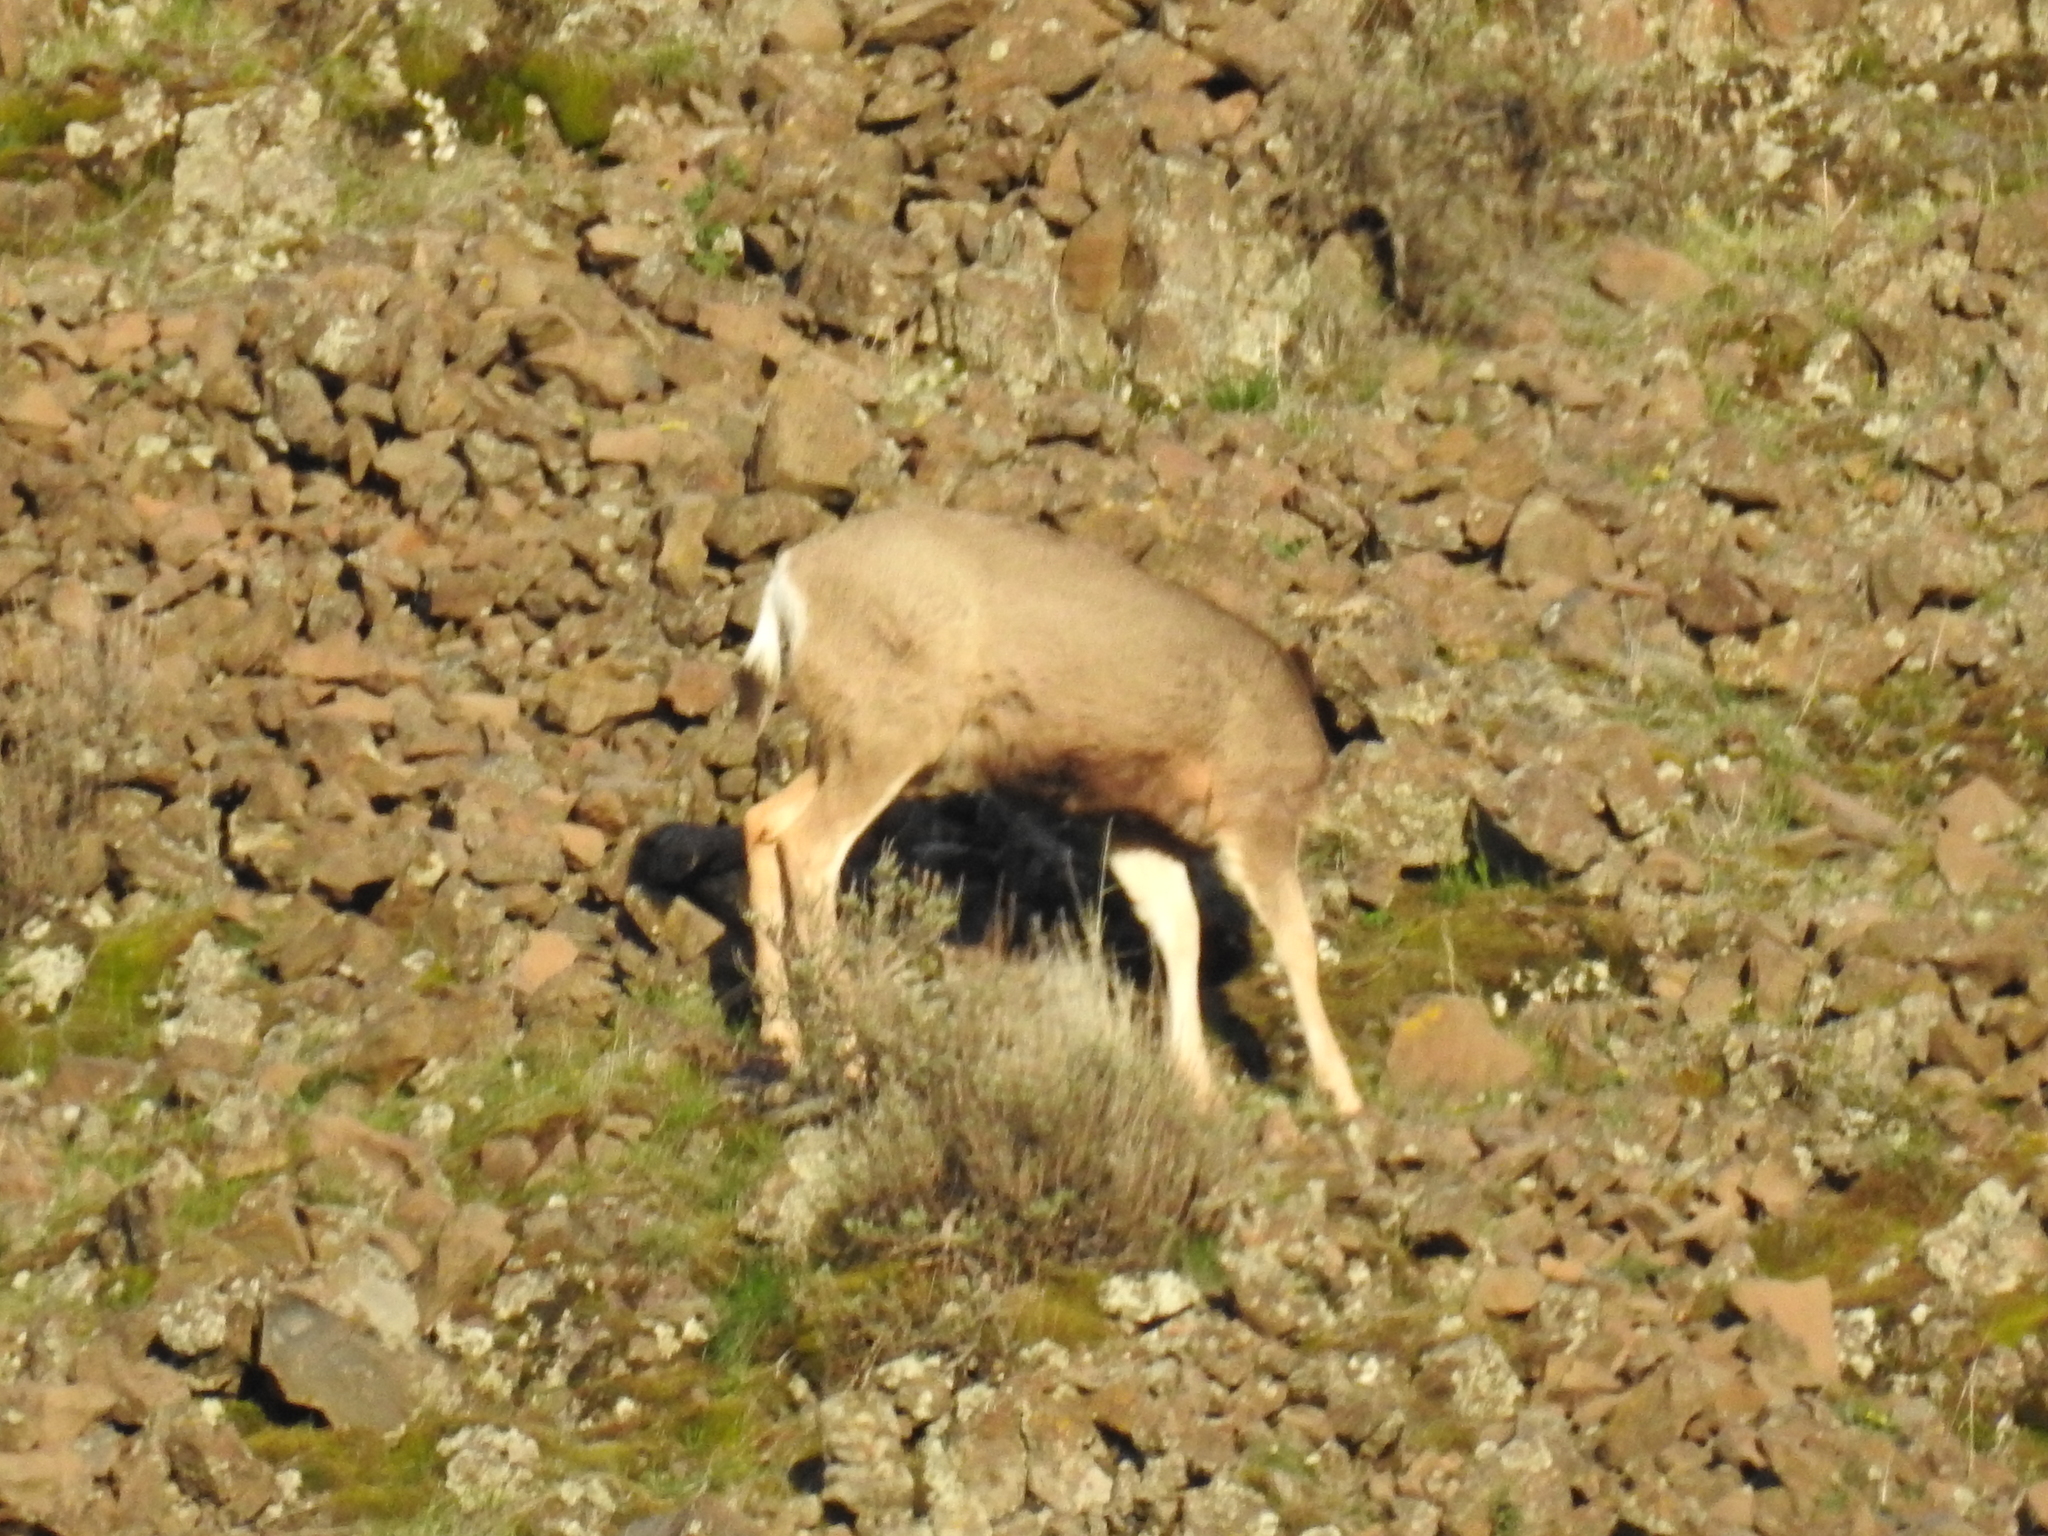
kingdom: Animalia
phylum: Chordata
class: Mammalia
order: Artiodactyla
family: Cervidae
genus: Odocoileus
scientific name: Odocoileus hemionus
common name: Mule deer
